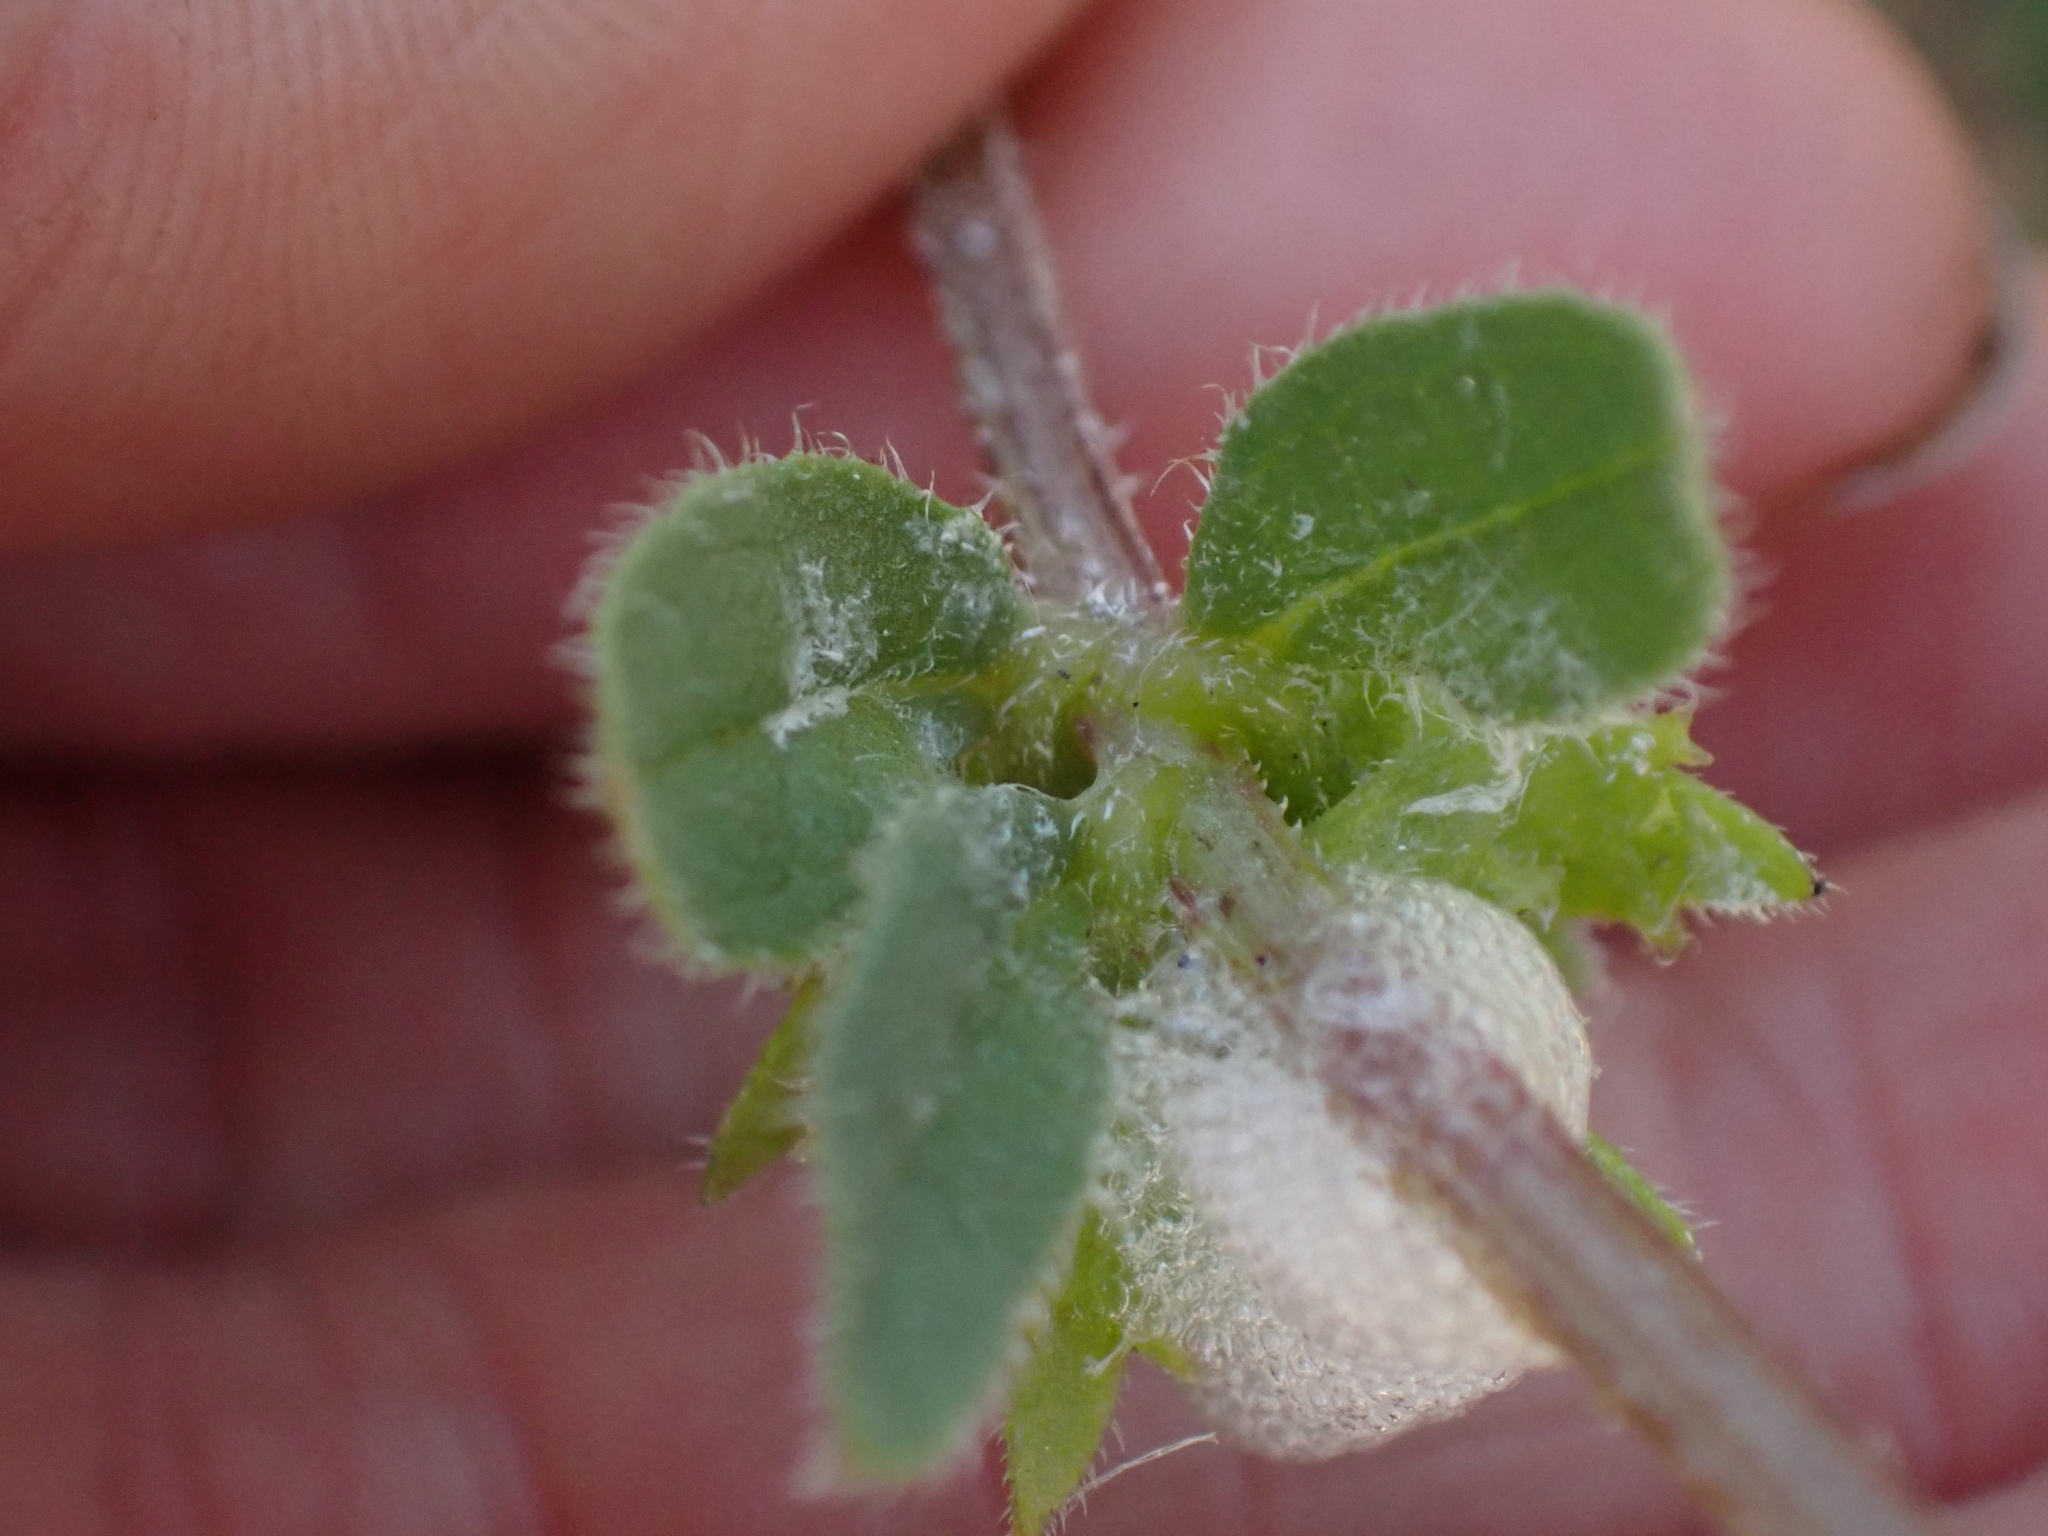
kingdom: Plantae
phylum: Tracheophyta
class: Magnoliopsida
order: Boraginales
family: Boraginaceae
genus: Asperugo
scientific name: Asperugo procumbens
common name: Madwort
